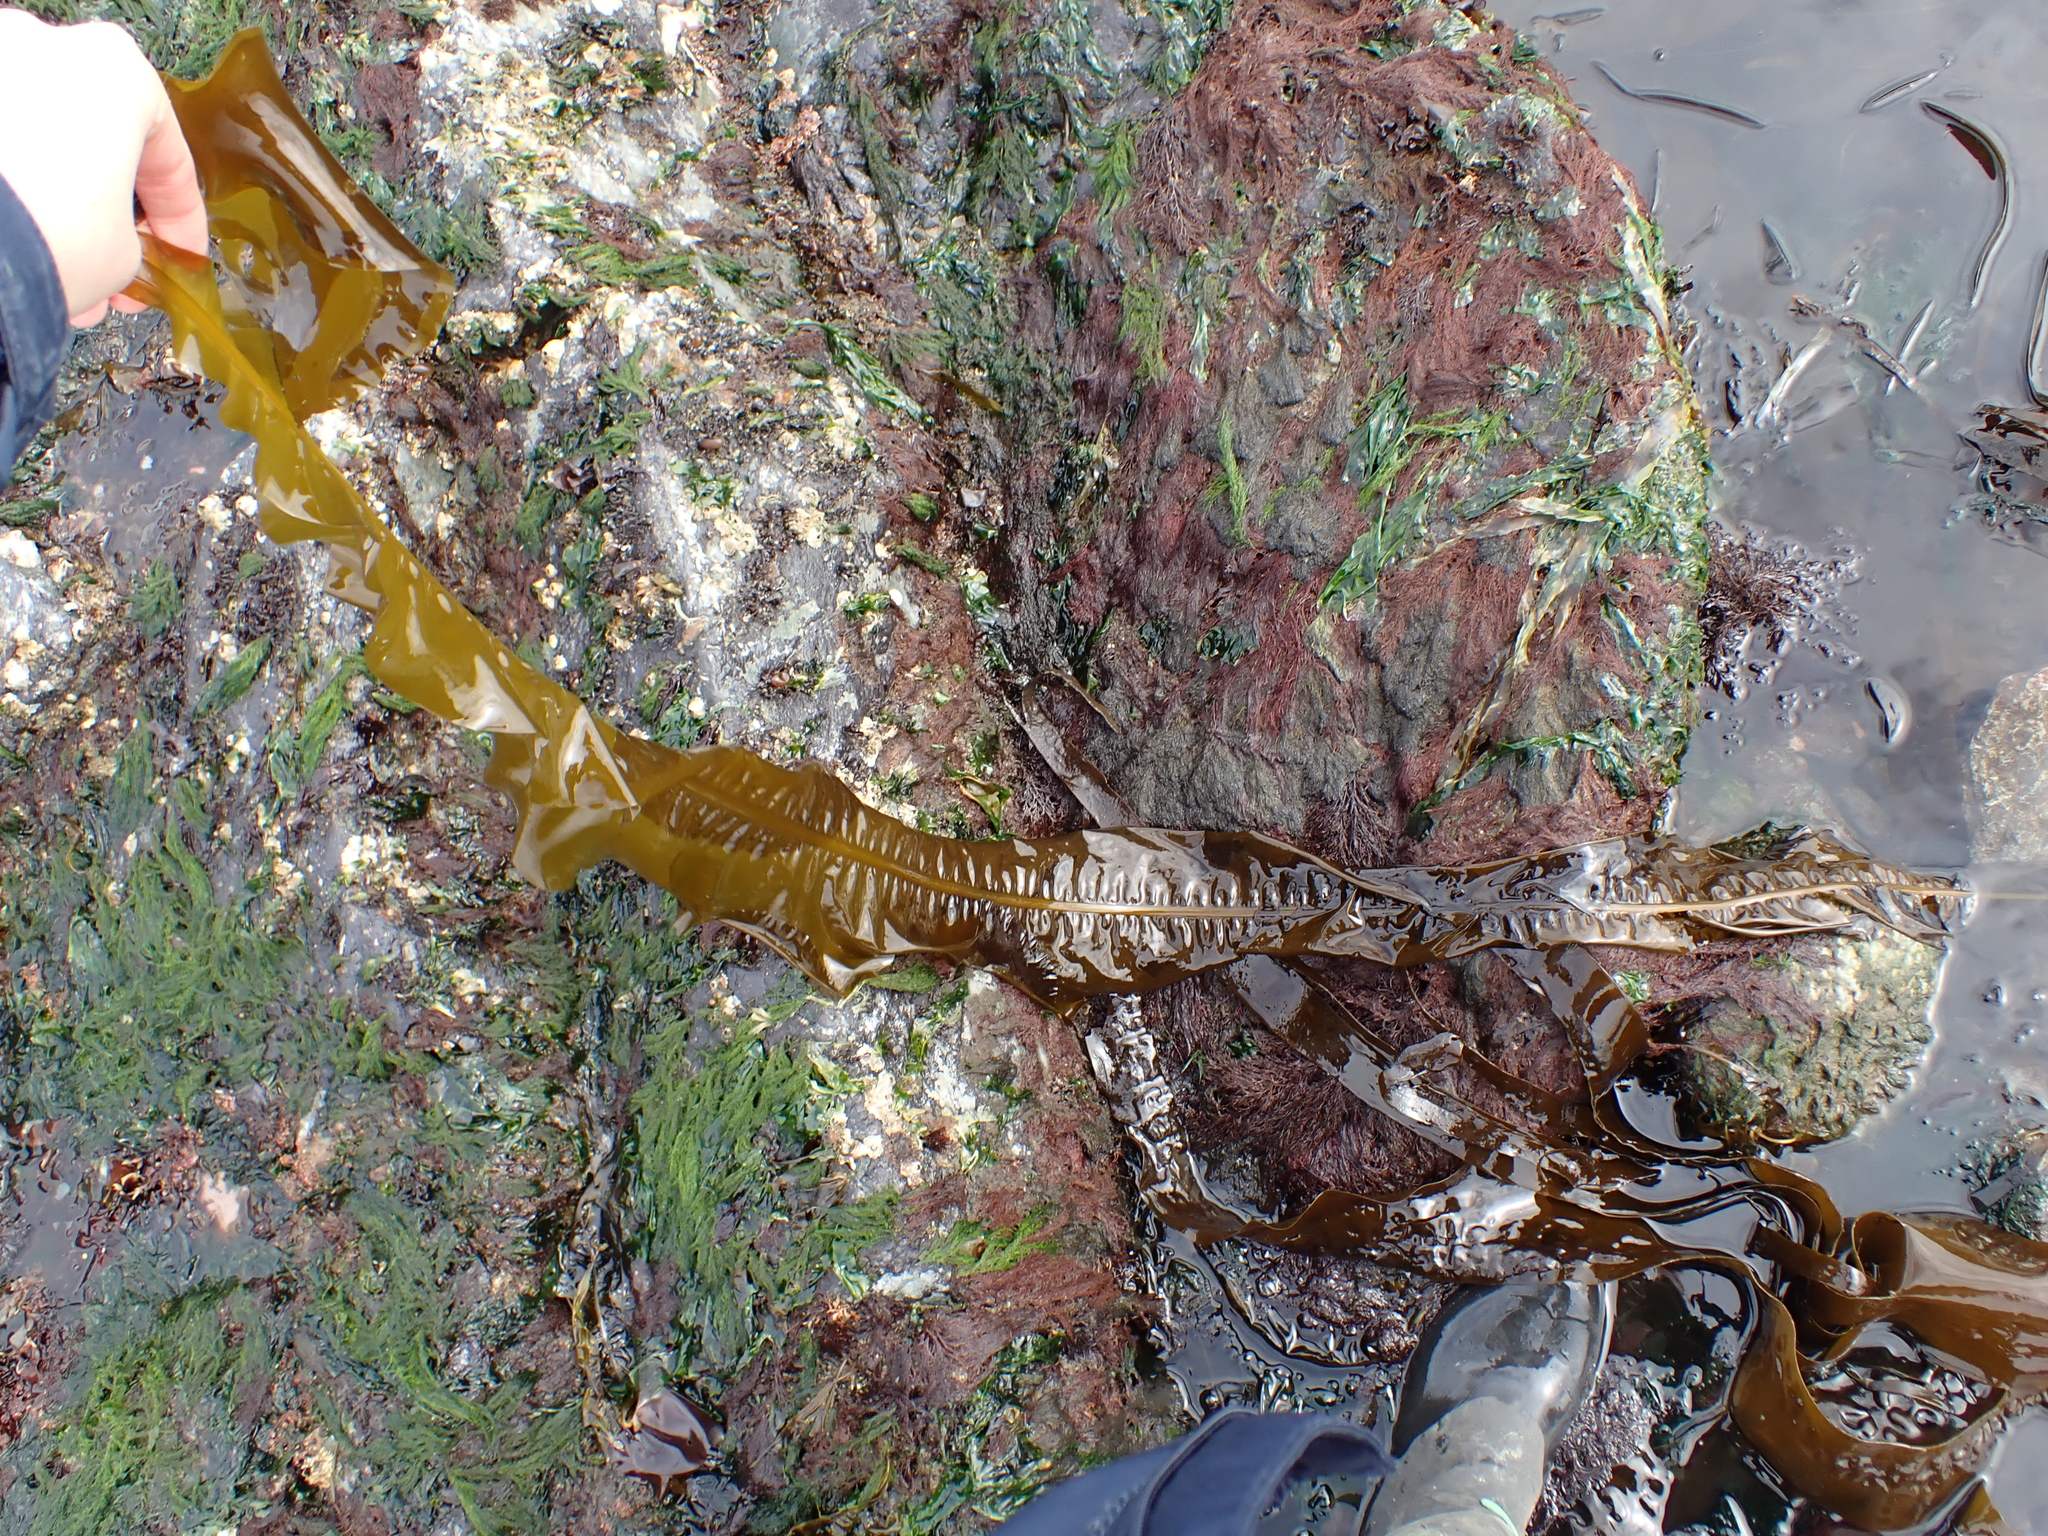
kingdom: Chromista
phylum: Ochrophyta
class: Phaeophyceae
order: Laminariales
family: Alariaceae
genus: Alaria
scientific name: Alaria marginata
